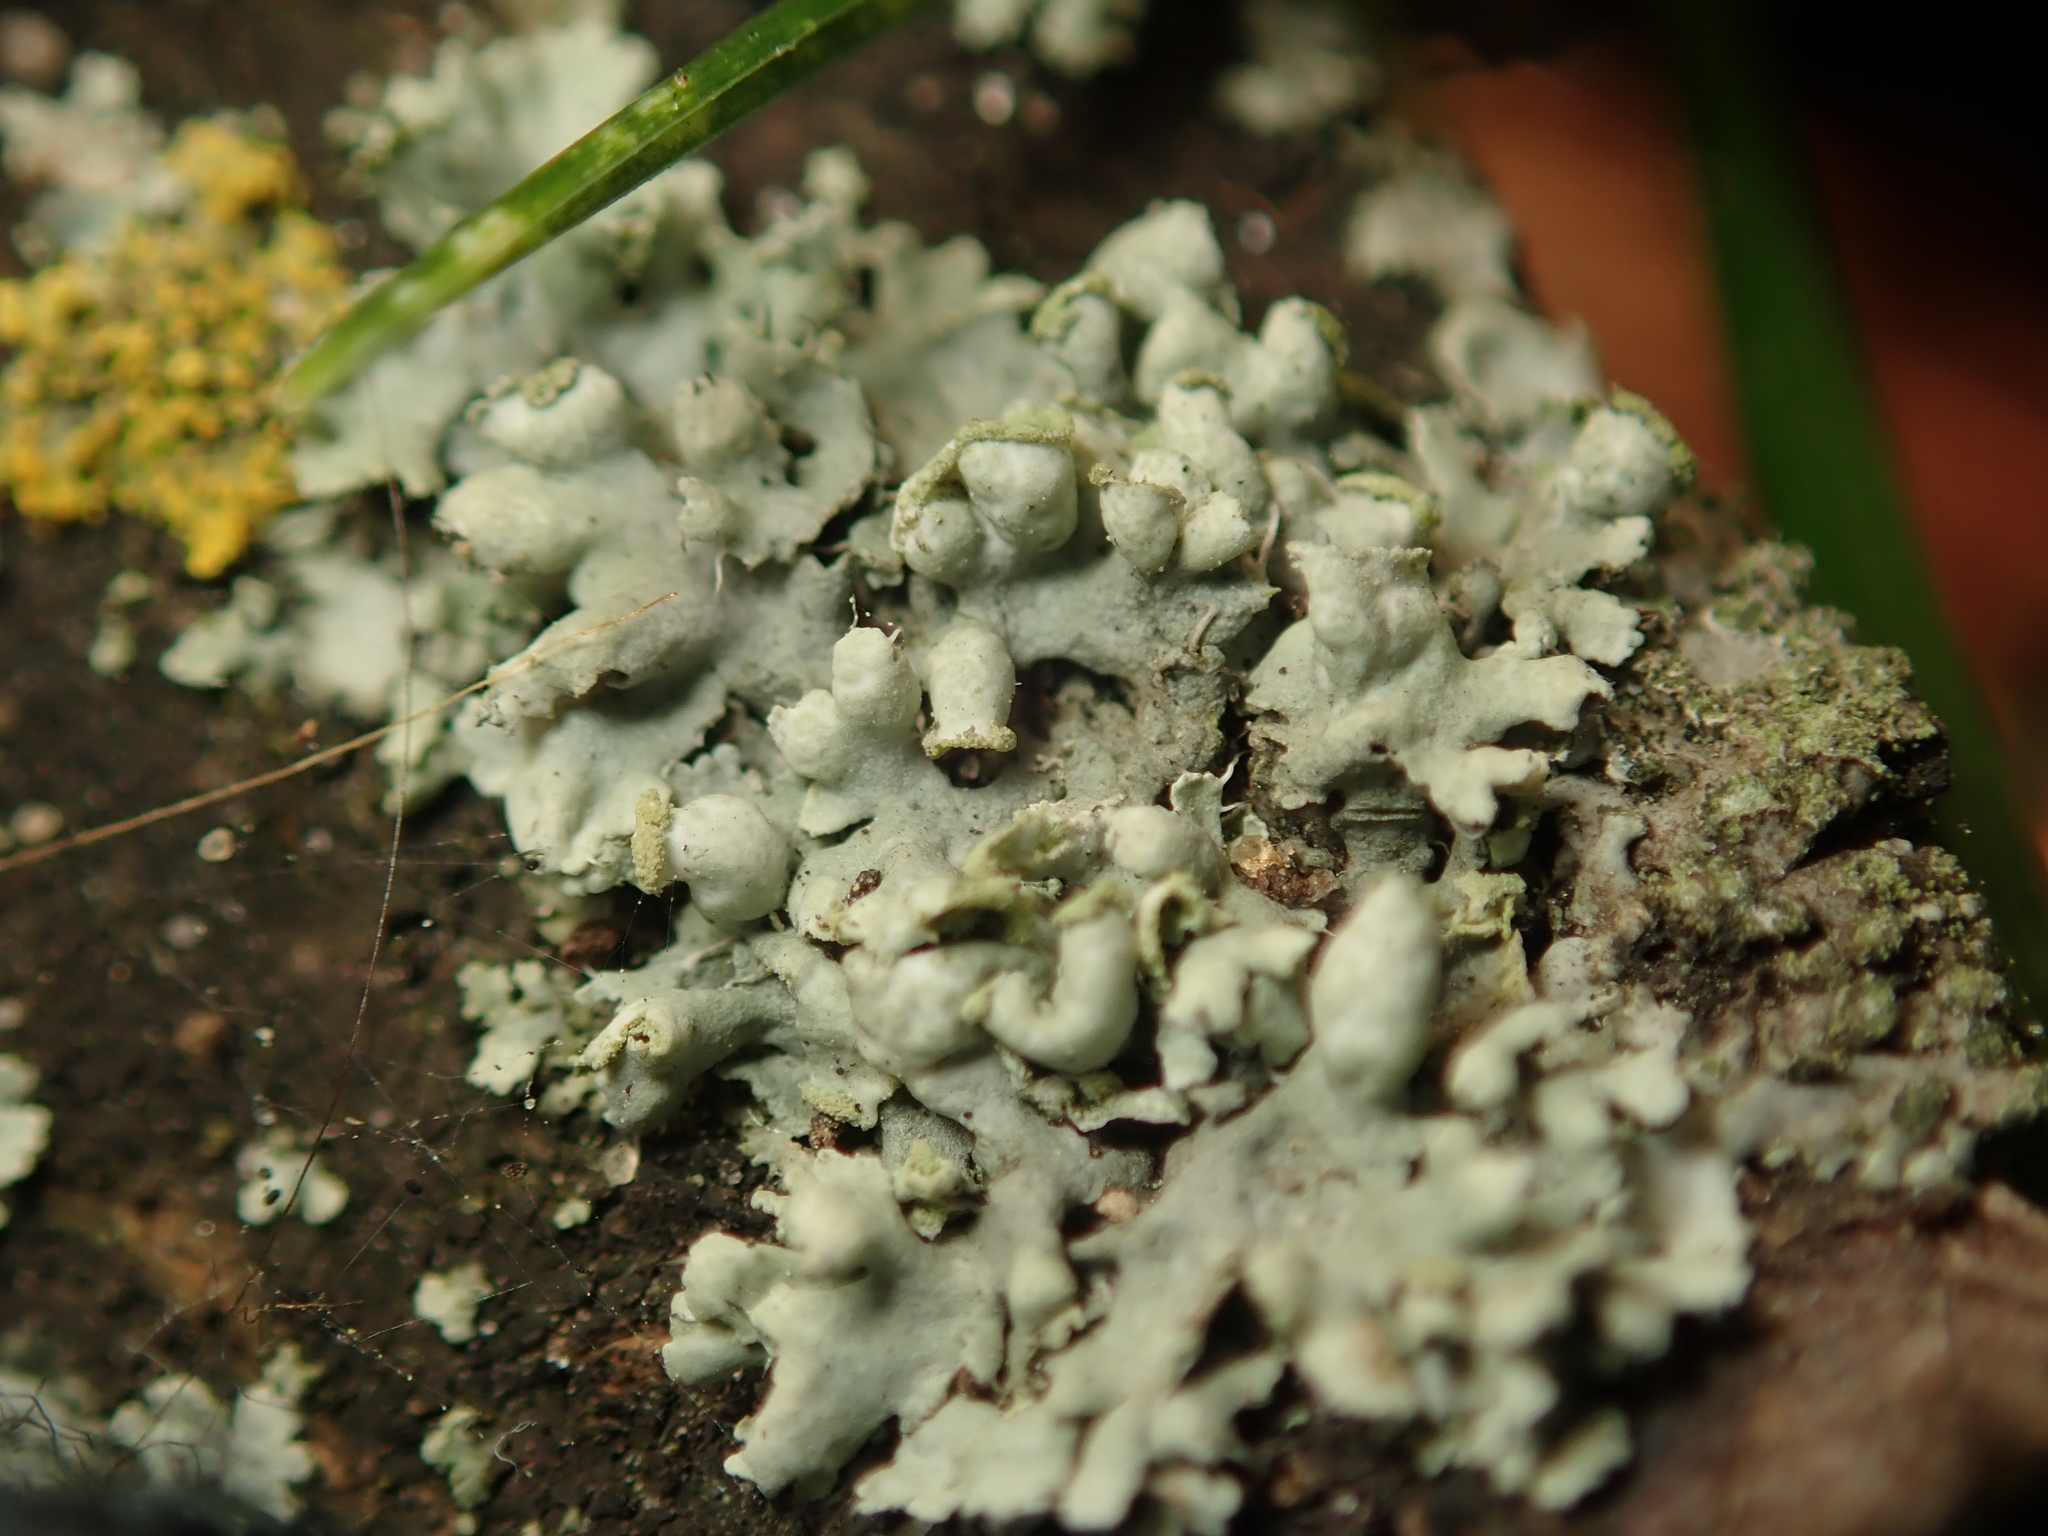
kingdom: Fungi
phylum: Ascomycota
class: Lecanoromycetes
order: Caliciales
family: Physciaceae
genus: Physcia
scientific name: Physcia adscendens
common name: Hooded rosette lichen
